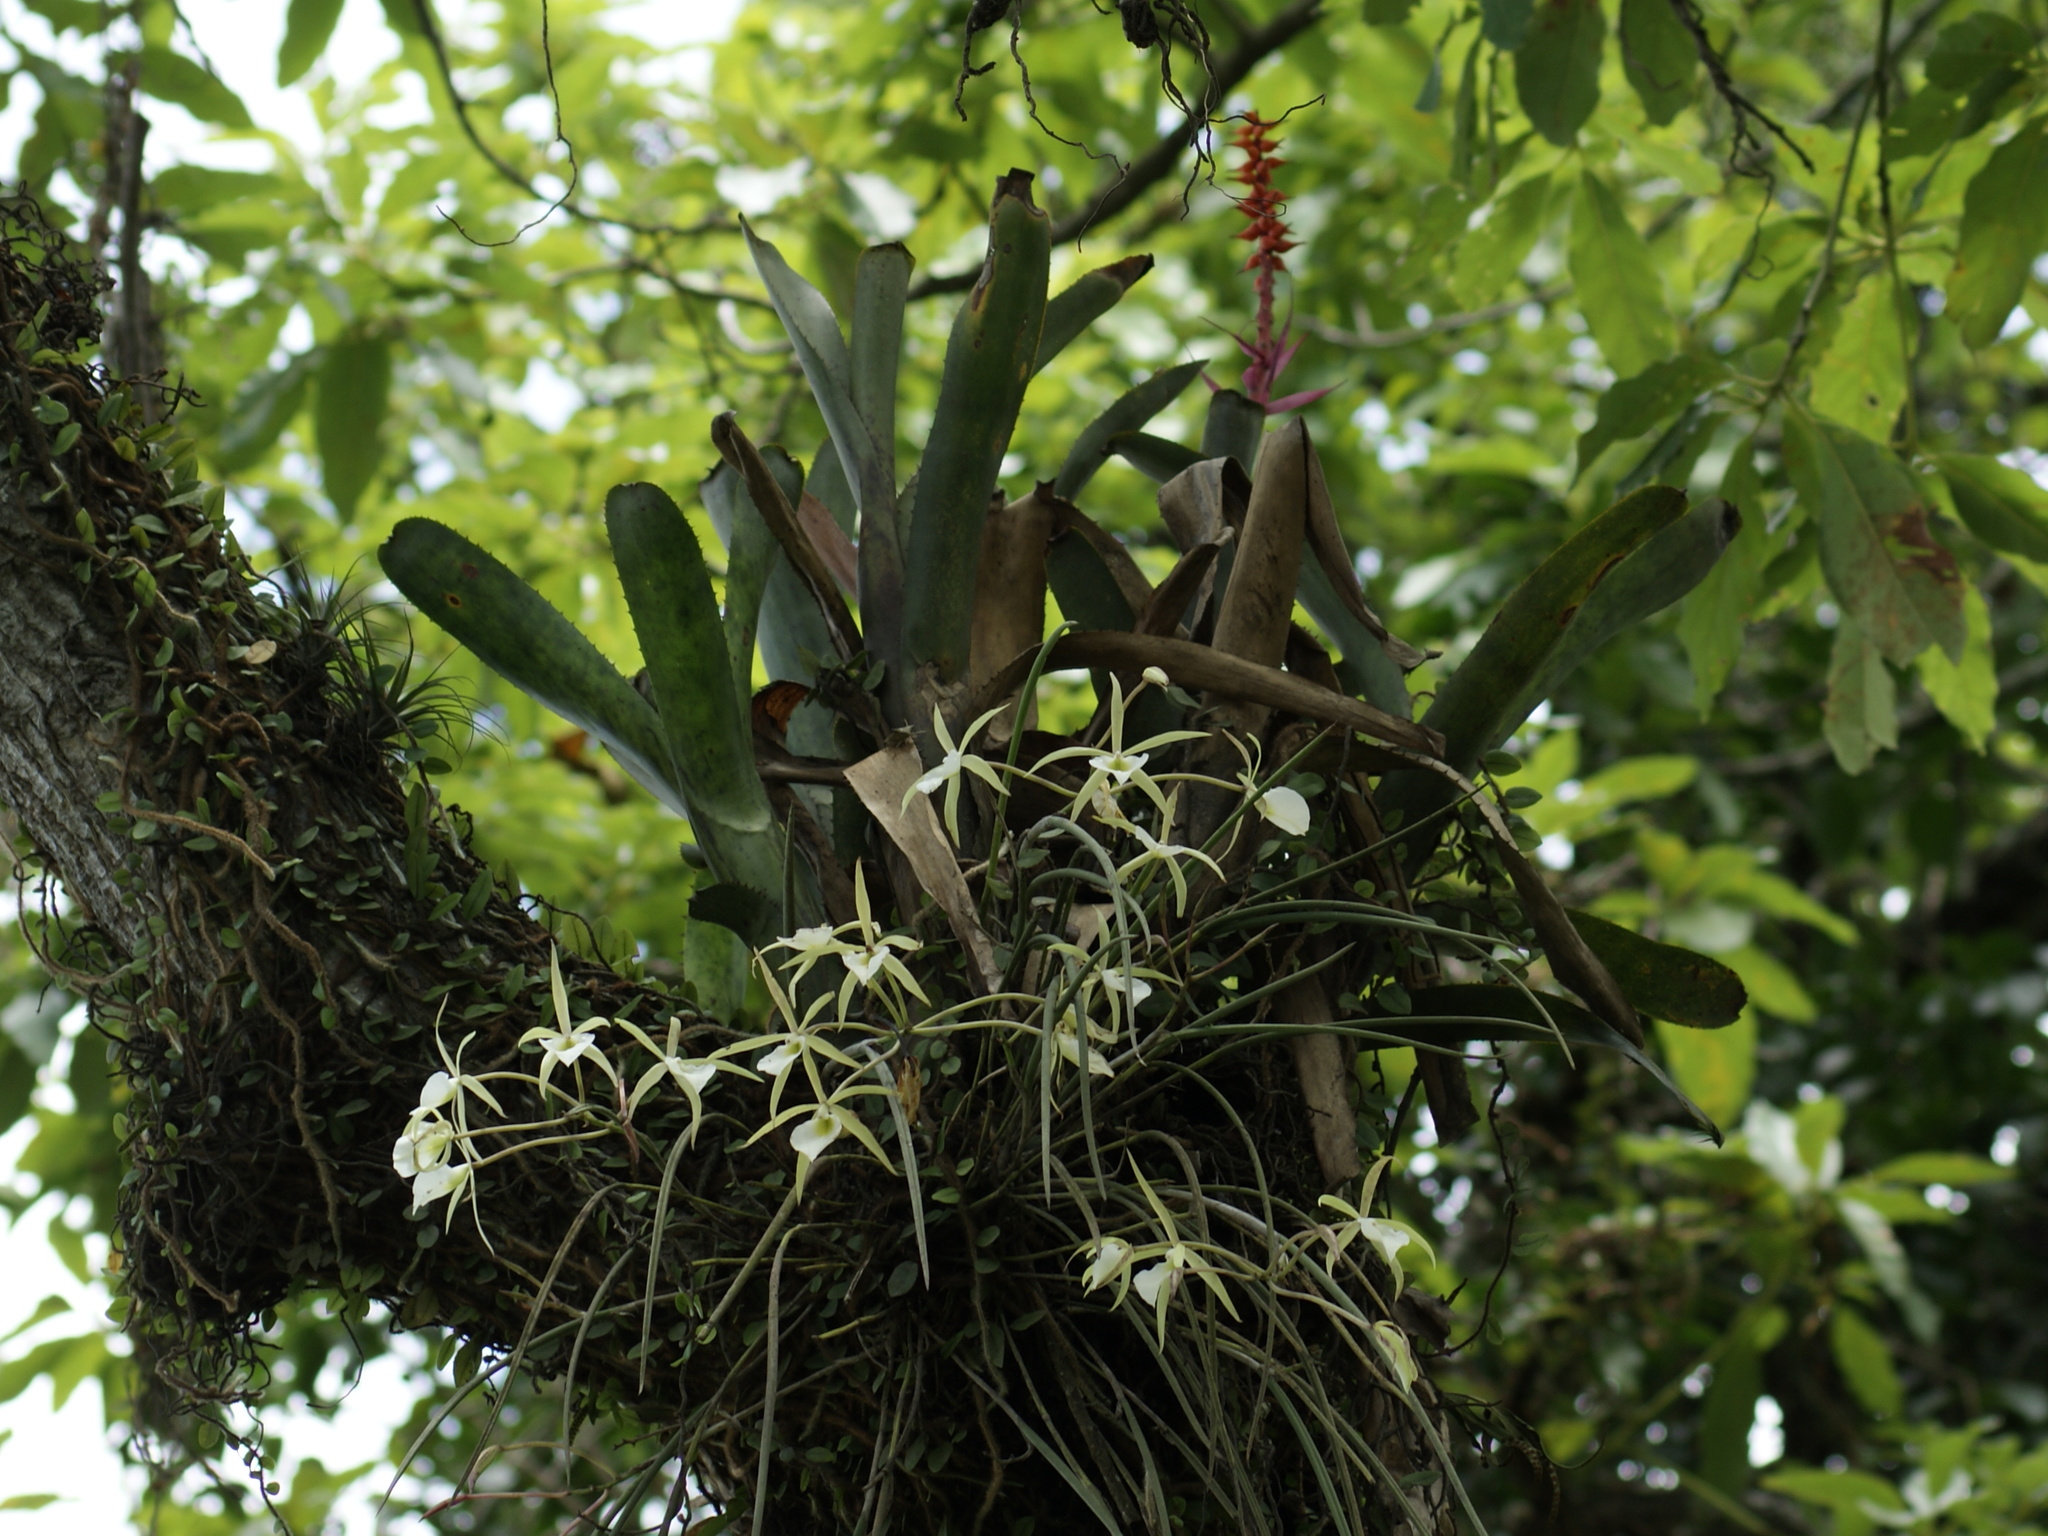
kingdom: Plantae
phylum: Tracheophyta
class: Liliopsida
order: Asparagales
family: Orchidaceae
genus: Brassavola
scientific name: Brassavola tuberculata
